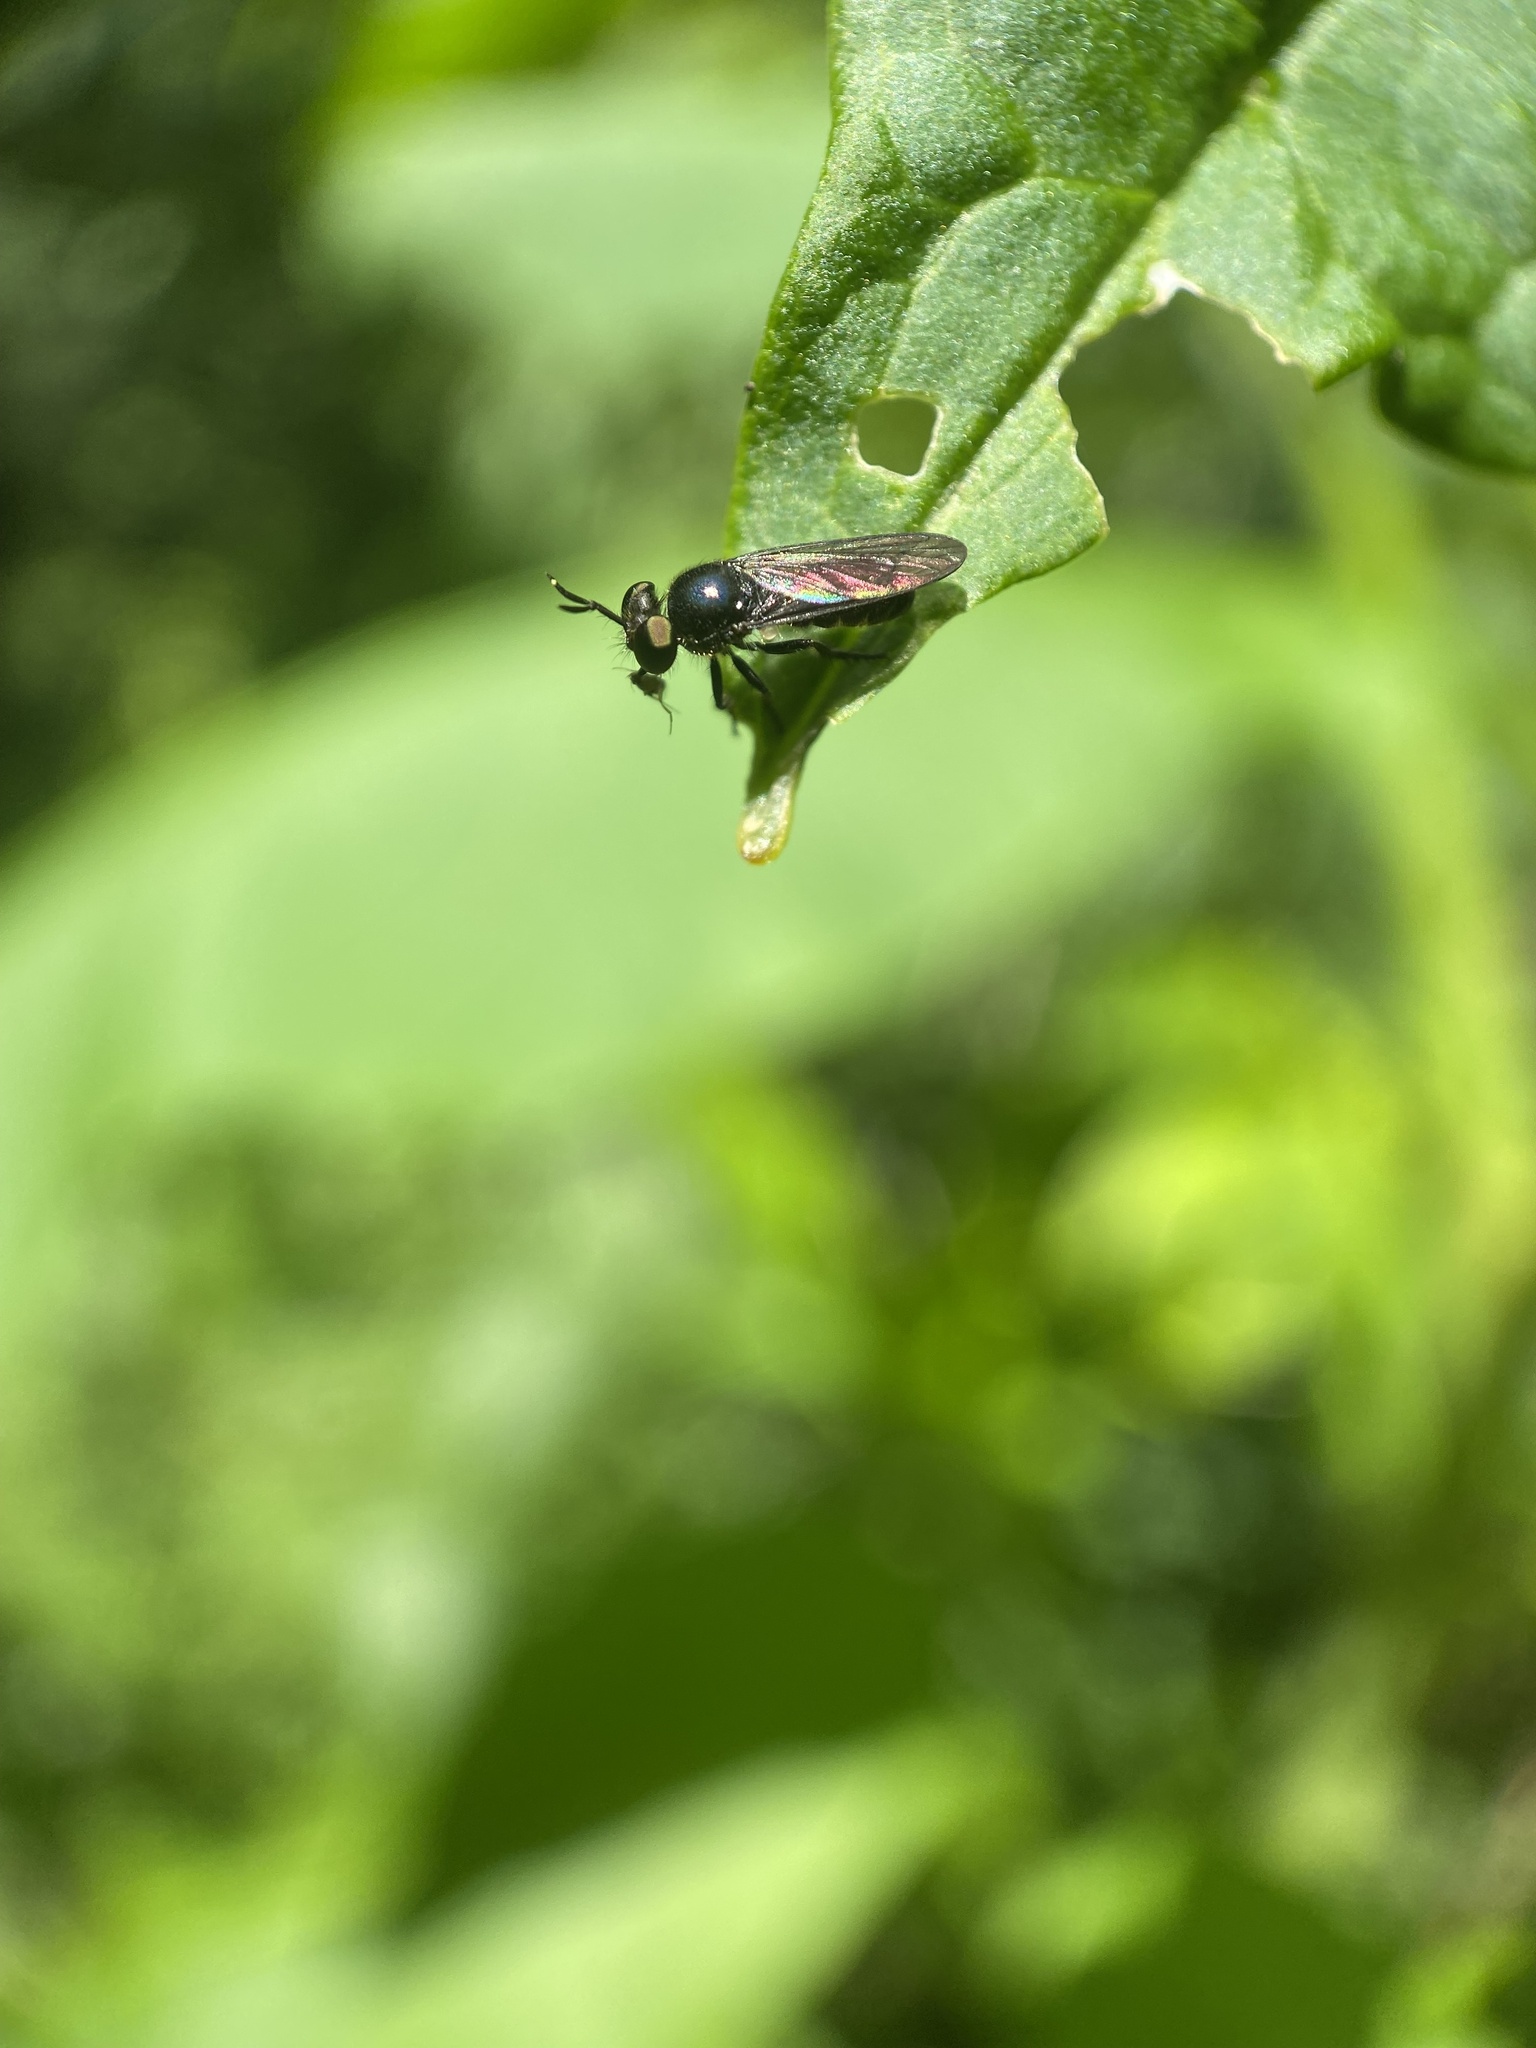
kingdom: Animalia
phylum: Arthropoda
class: Insecta
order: Diptera
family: Asilidae
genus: Cerotainia
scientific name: Cerotainia macrocera
